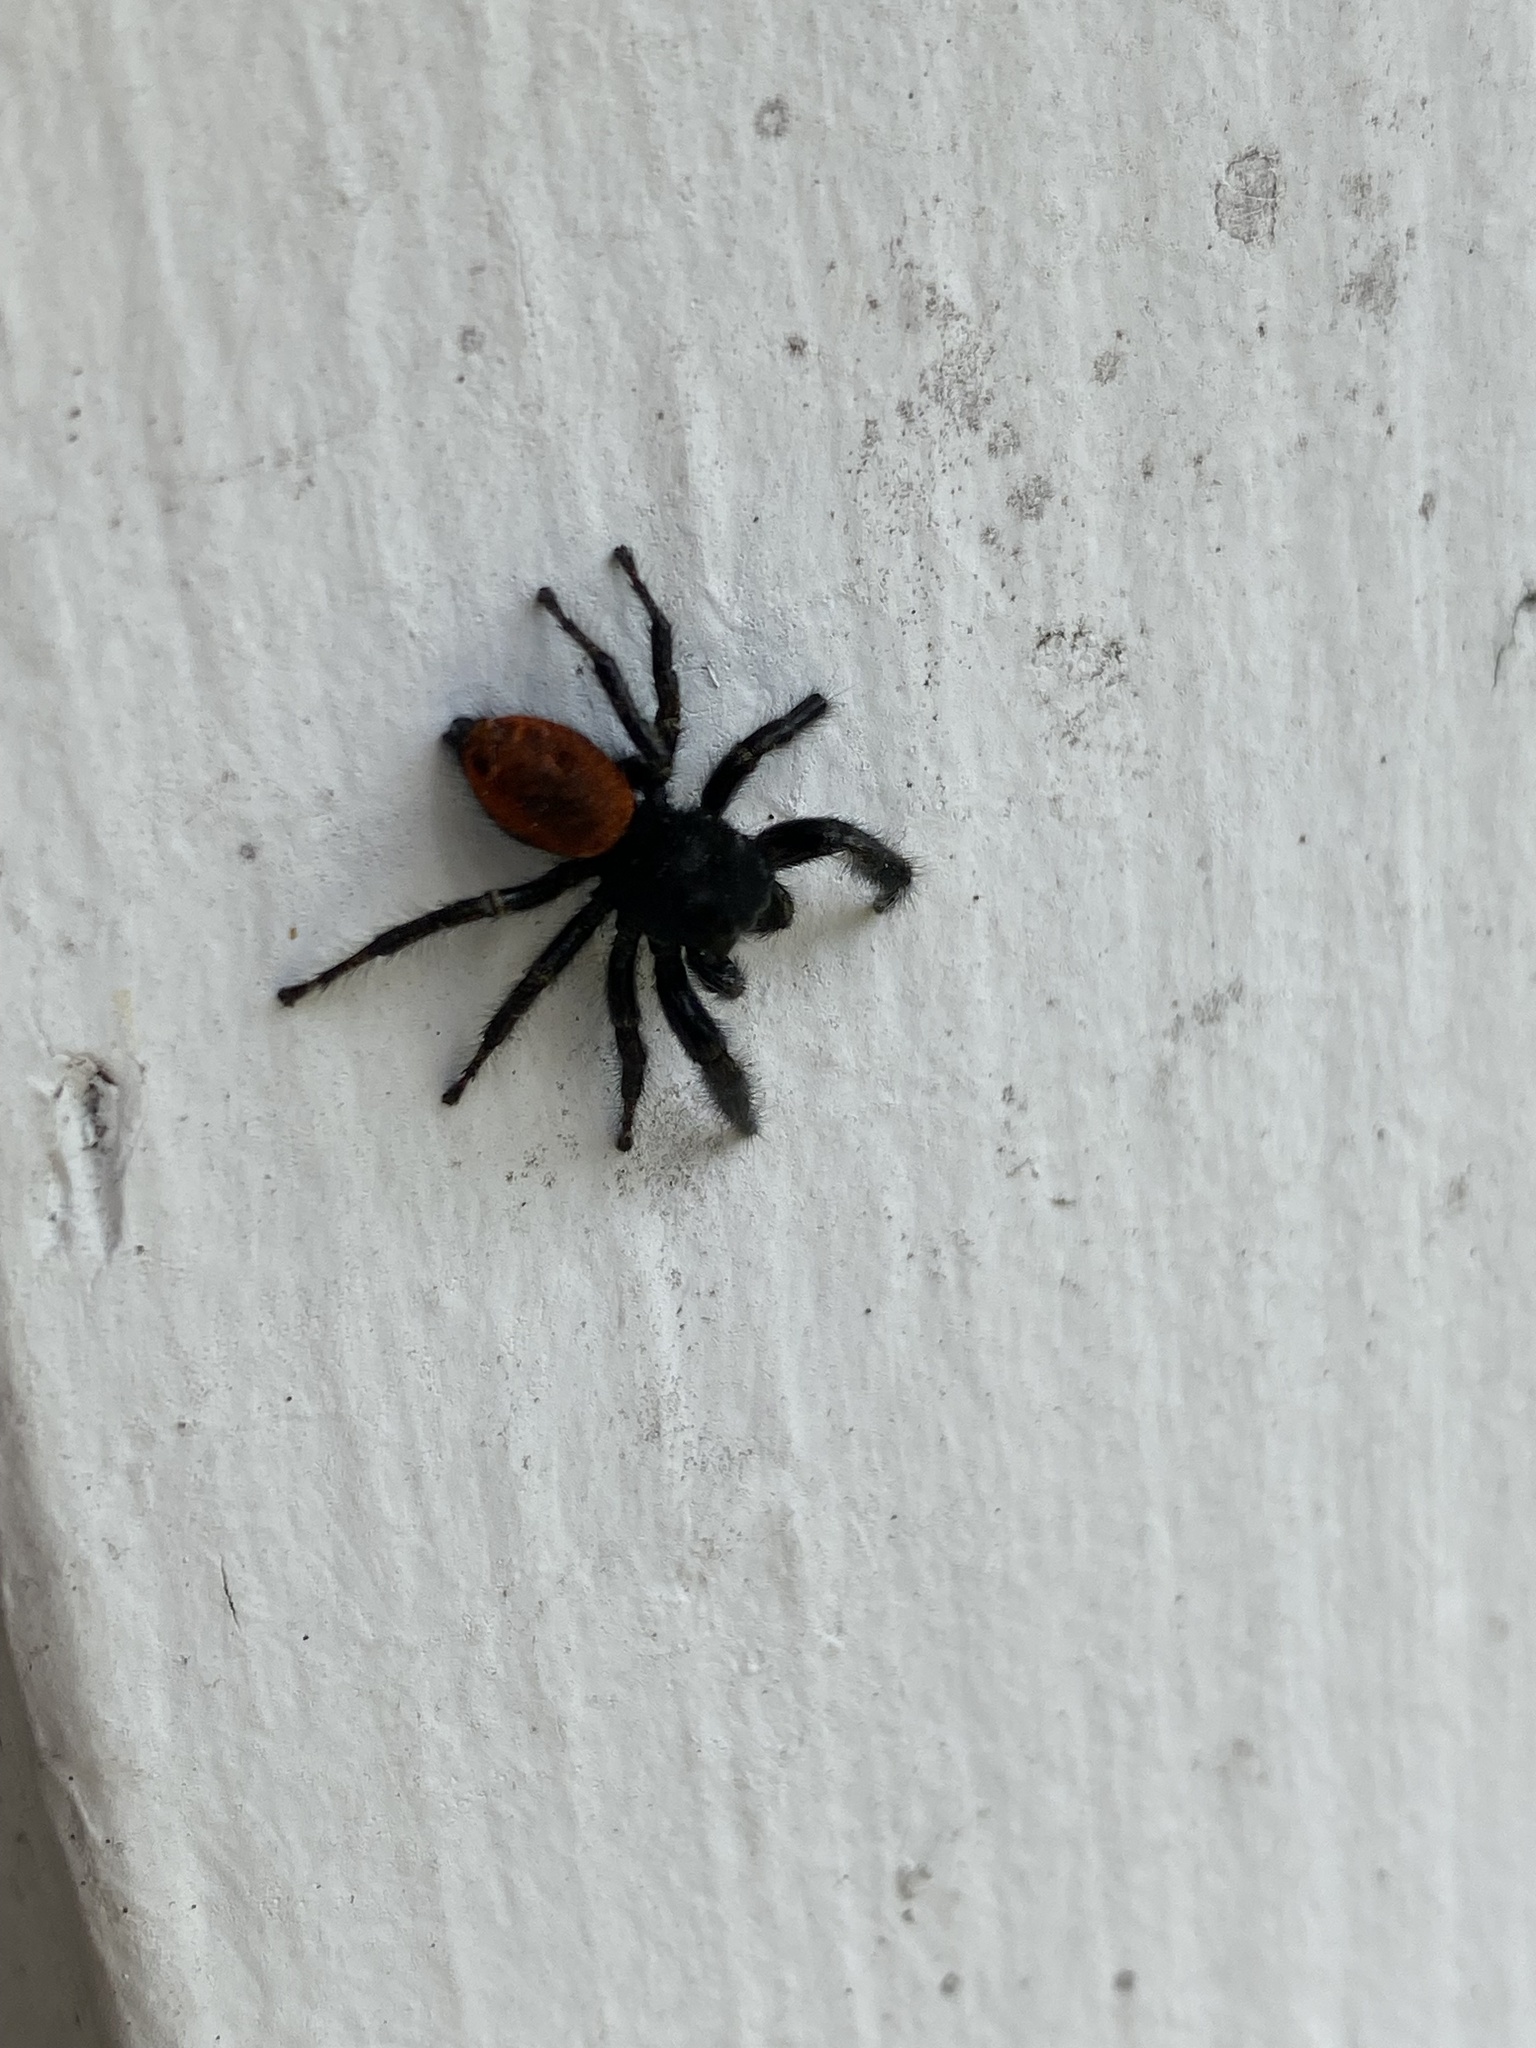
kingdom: Animalia
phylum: Arthropoda
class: Arachnida
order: Araneae
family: Salticidae
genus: Phidippus
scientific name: Phidippus johnsoni
